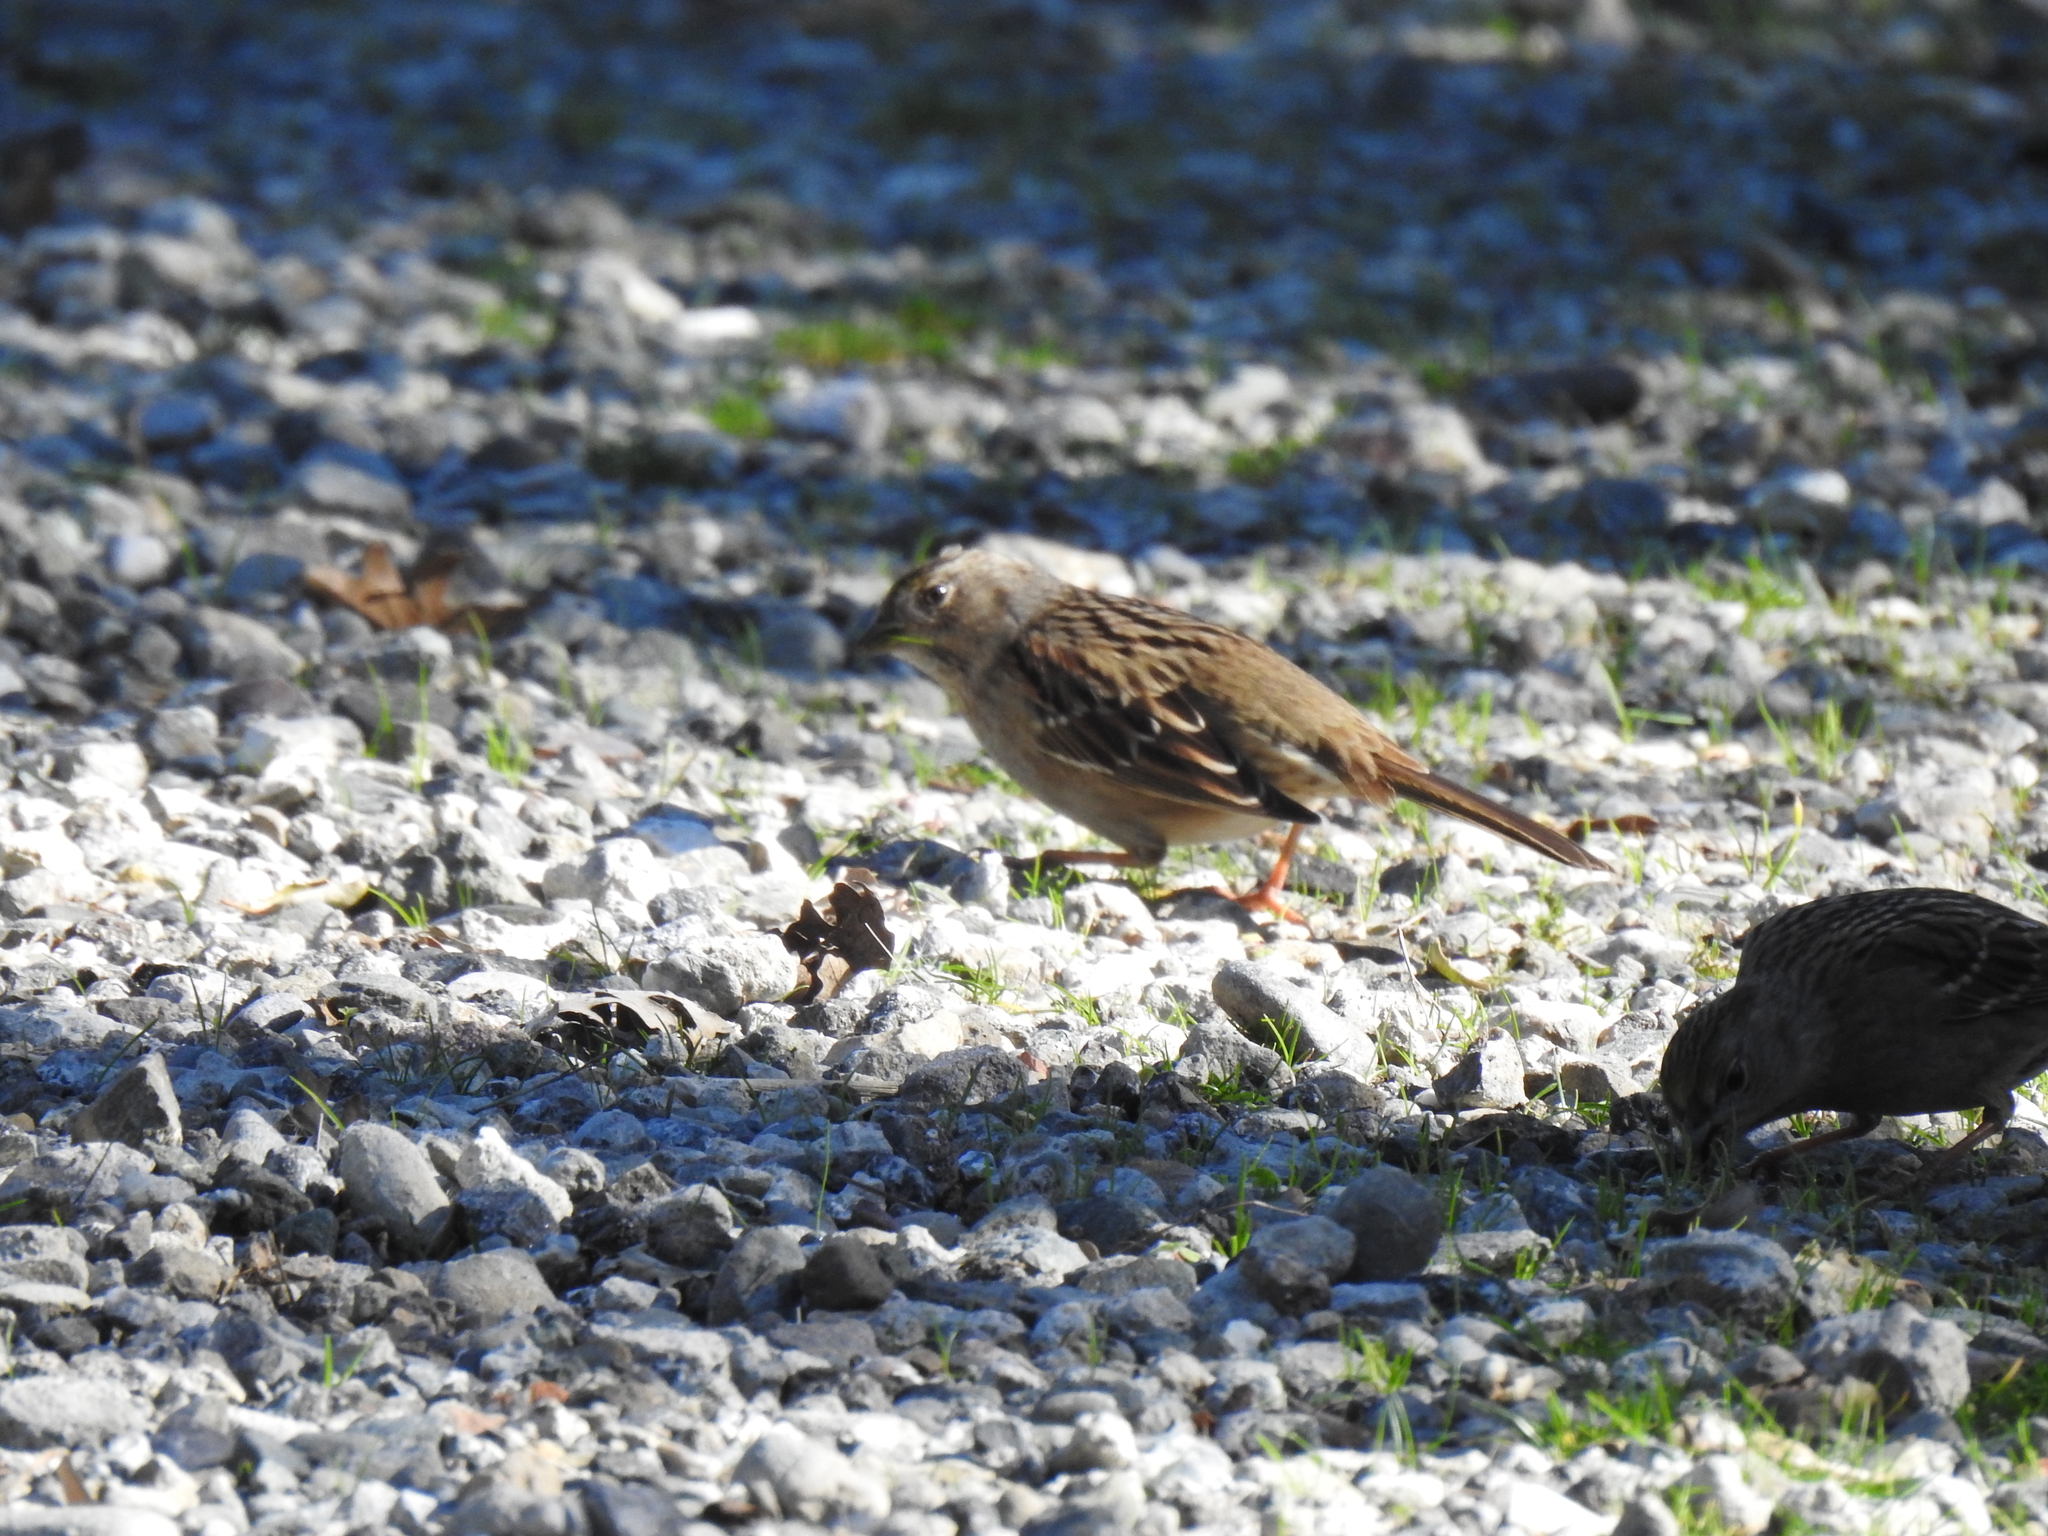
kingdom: Animalia
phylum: Chordata
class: Aves
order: Passeriformes
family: Passerellidae
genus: Zonotrichia
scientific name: Zonotrichia atricapilla
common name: Golden-crowned sparrow
